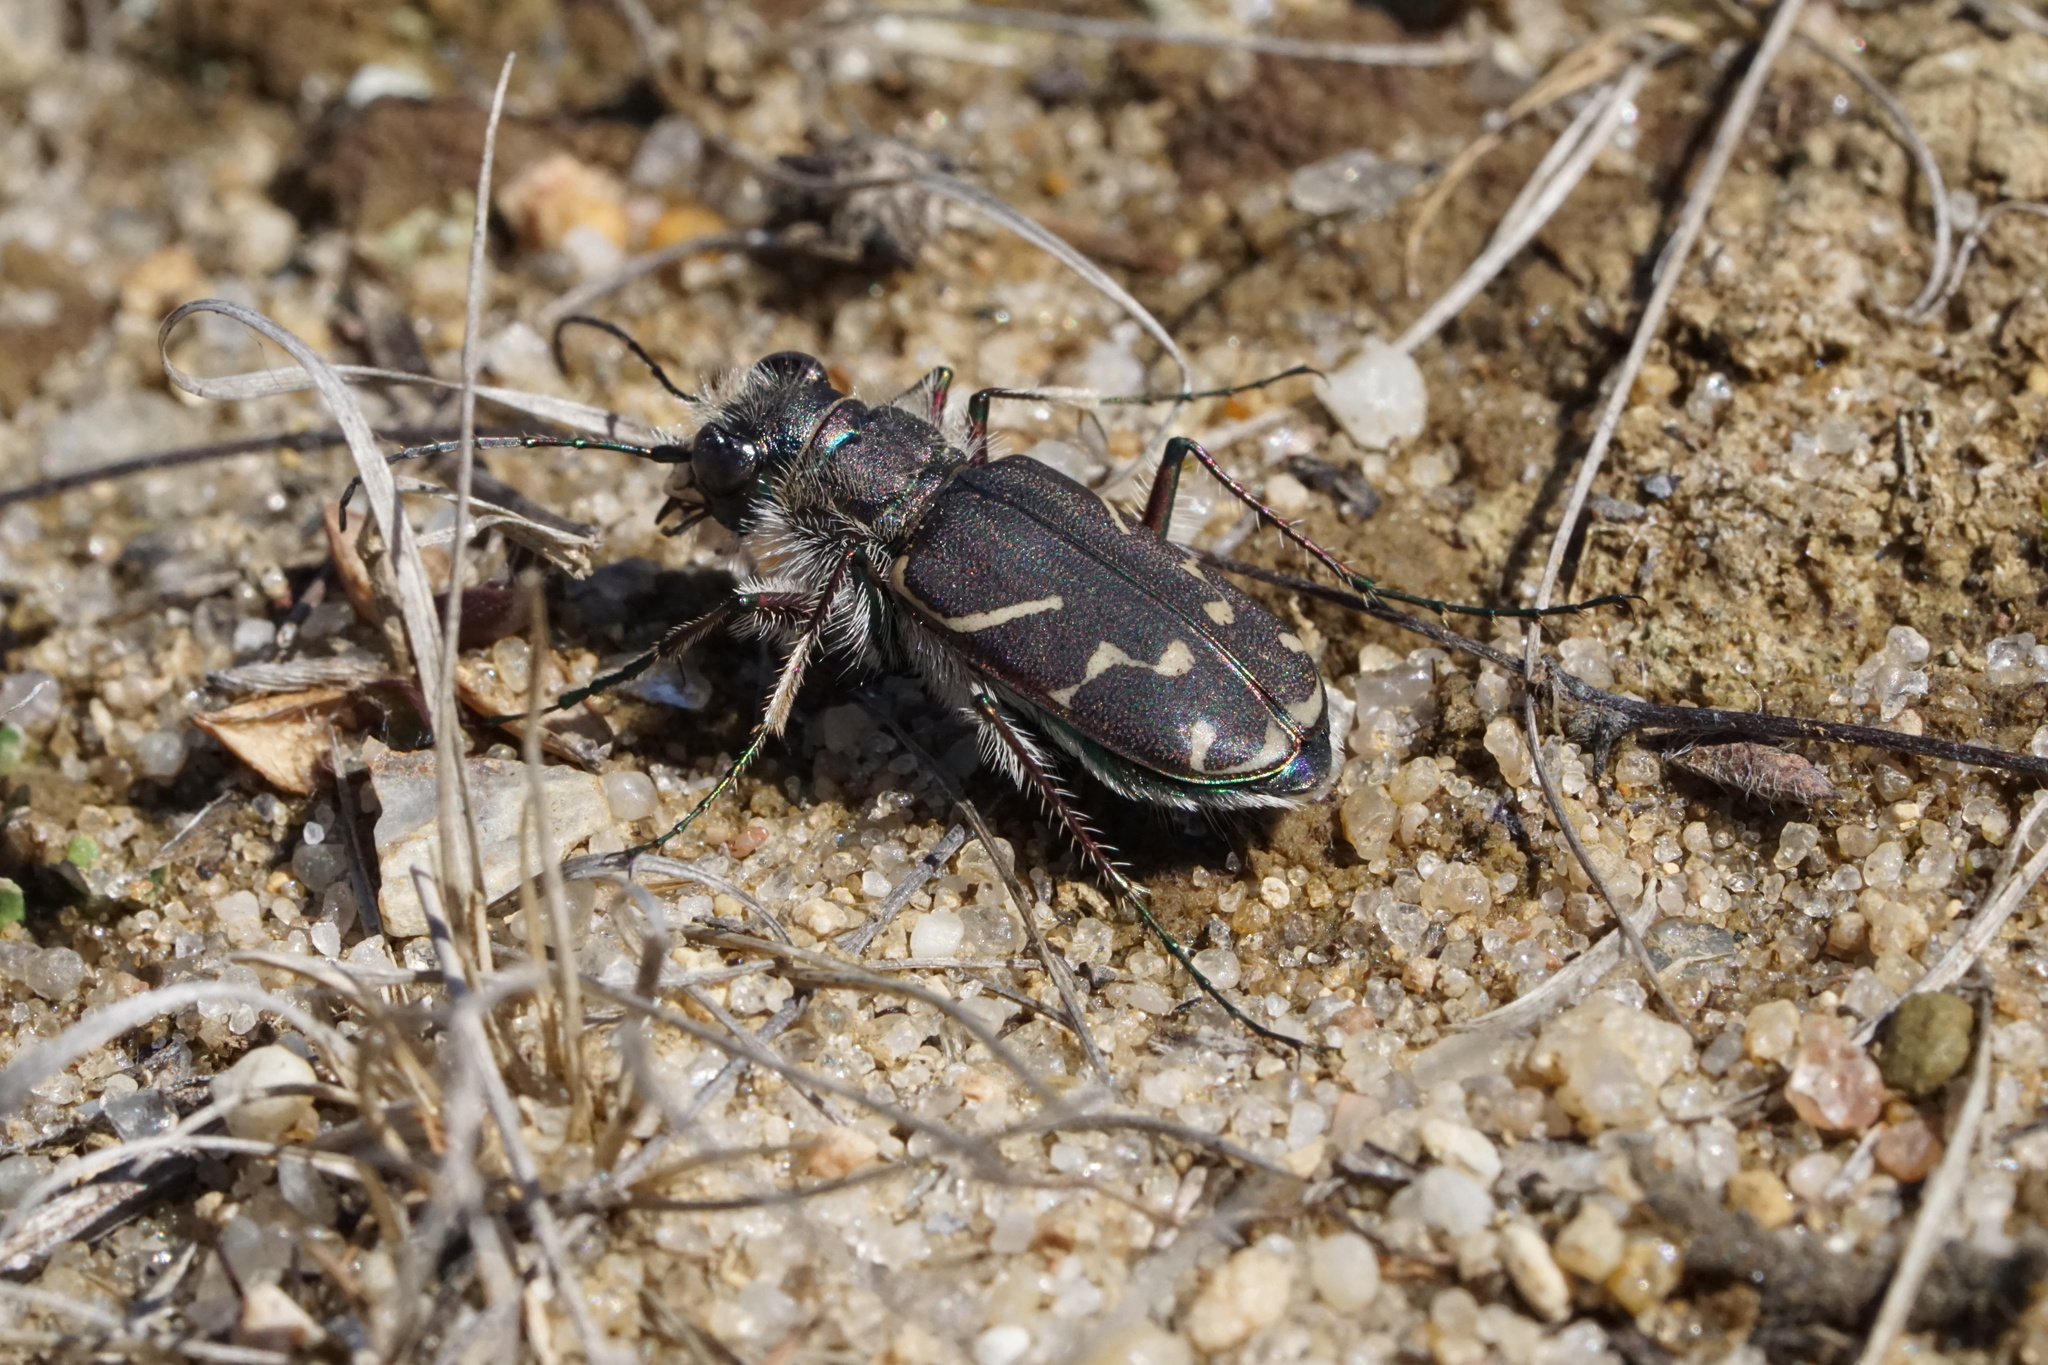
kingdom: Animalia
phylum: Arthropoda
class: Insecta
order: Coleoptera
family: Carabidae
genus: Cicindela
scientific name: Cicindela tranquebarica
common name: Oblique-lined tiger beetle
